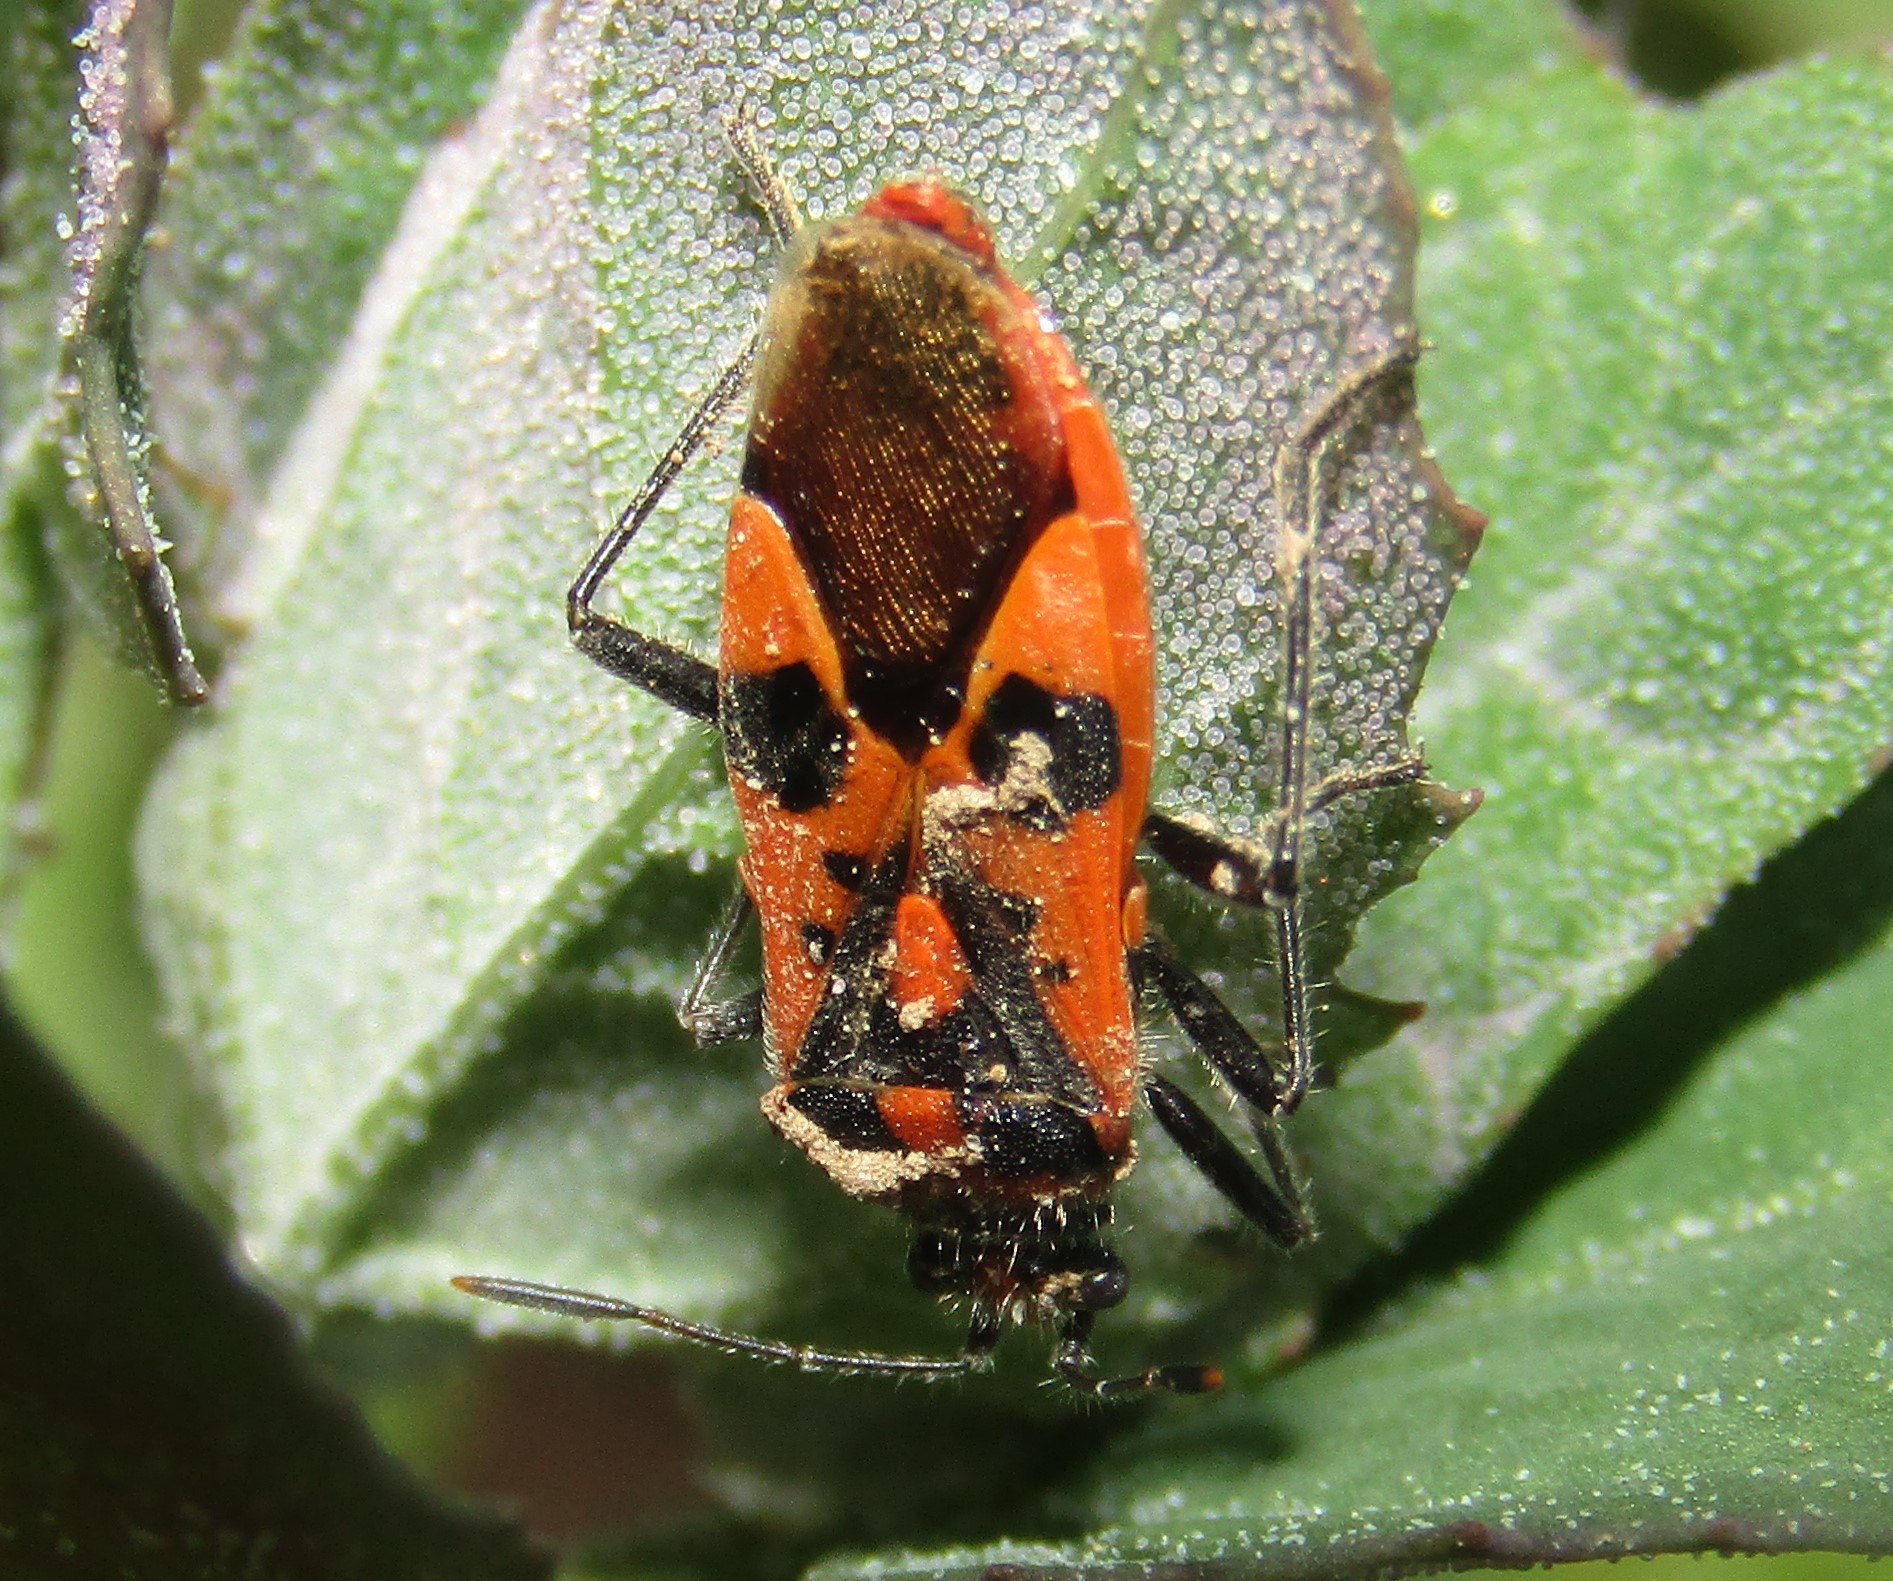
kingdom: Animalia
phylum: Arthropoda
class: Insecta
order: Hemiptera
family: Rhopalidae
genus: Corizus
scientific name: Corizus hyoscyami
